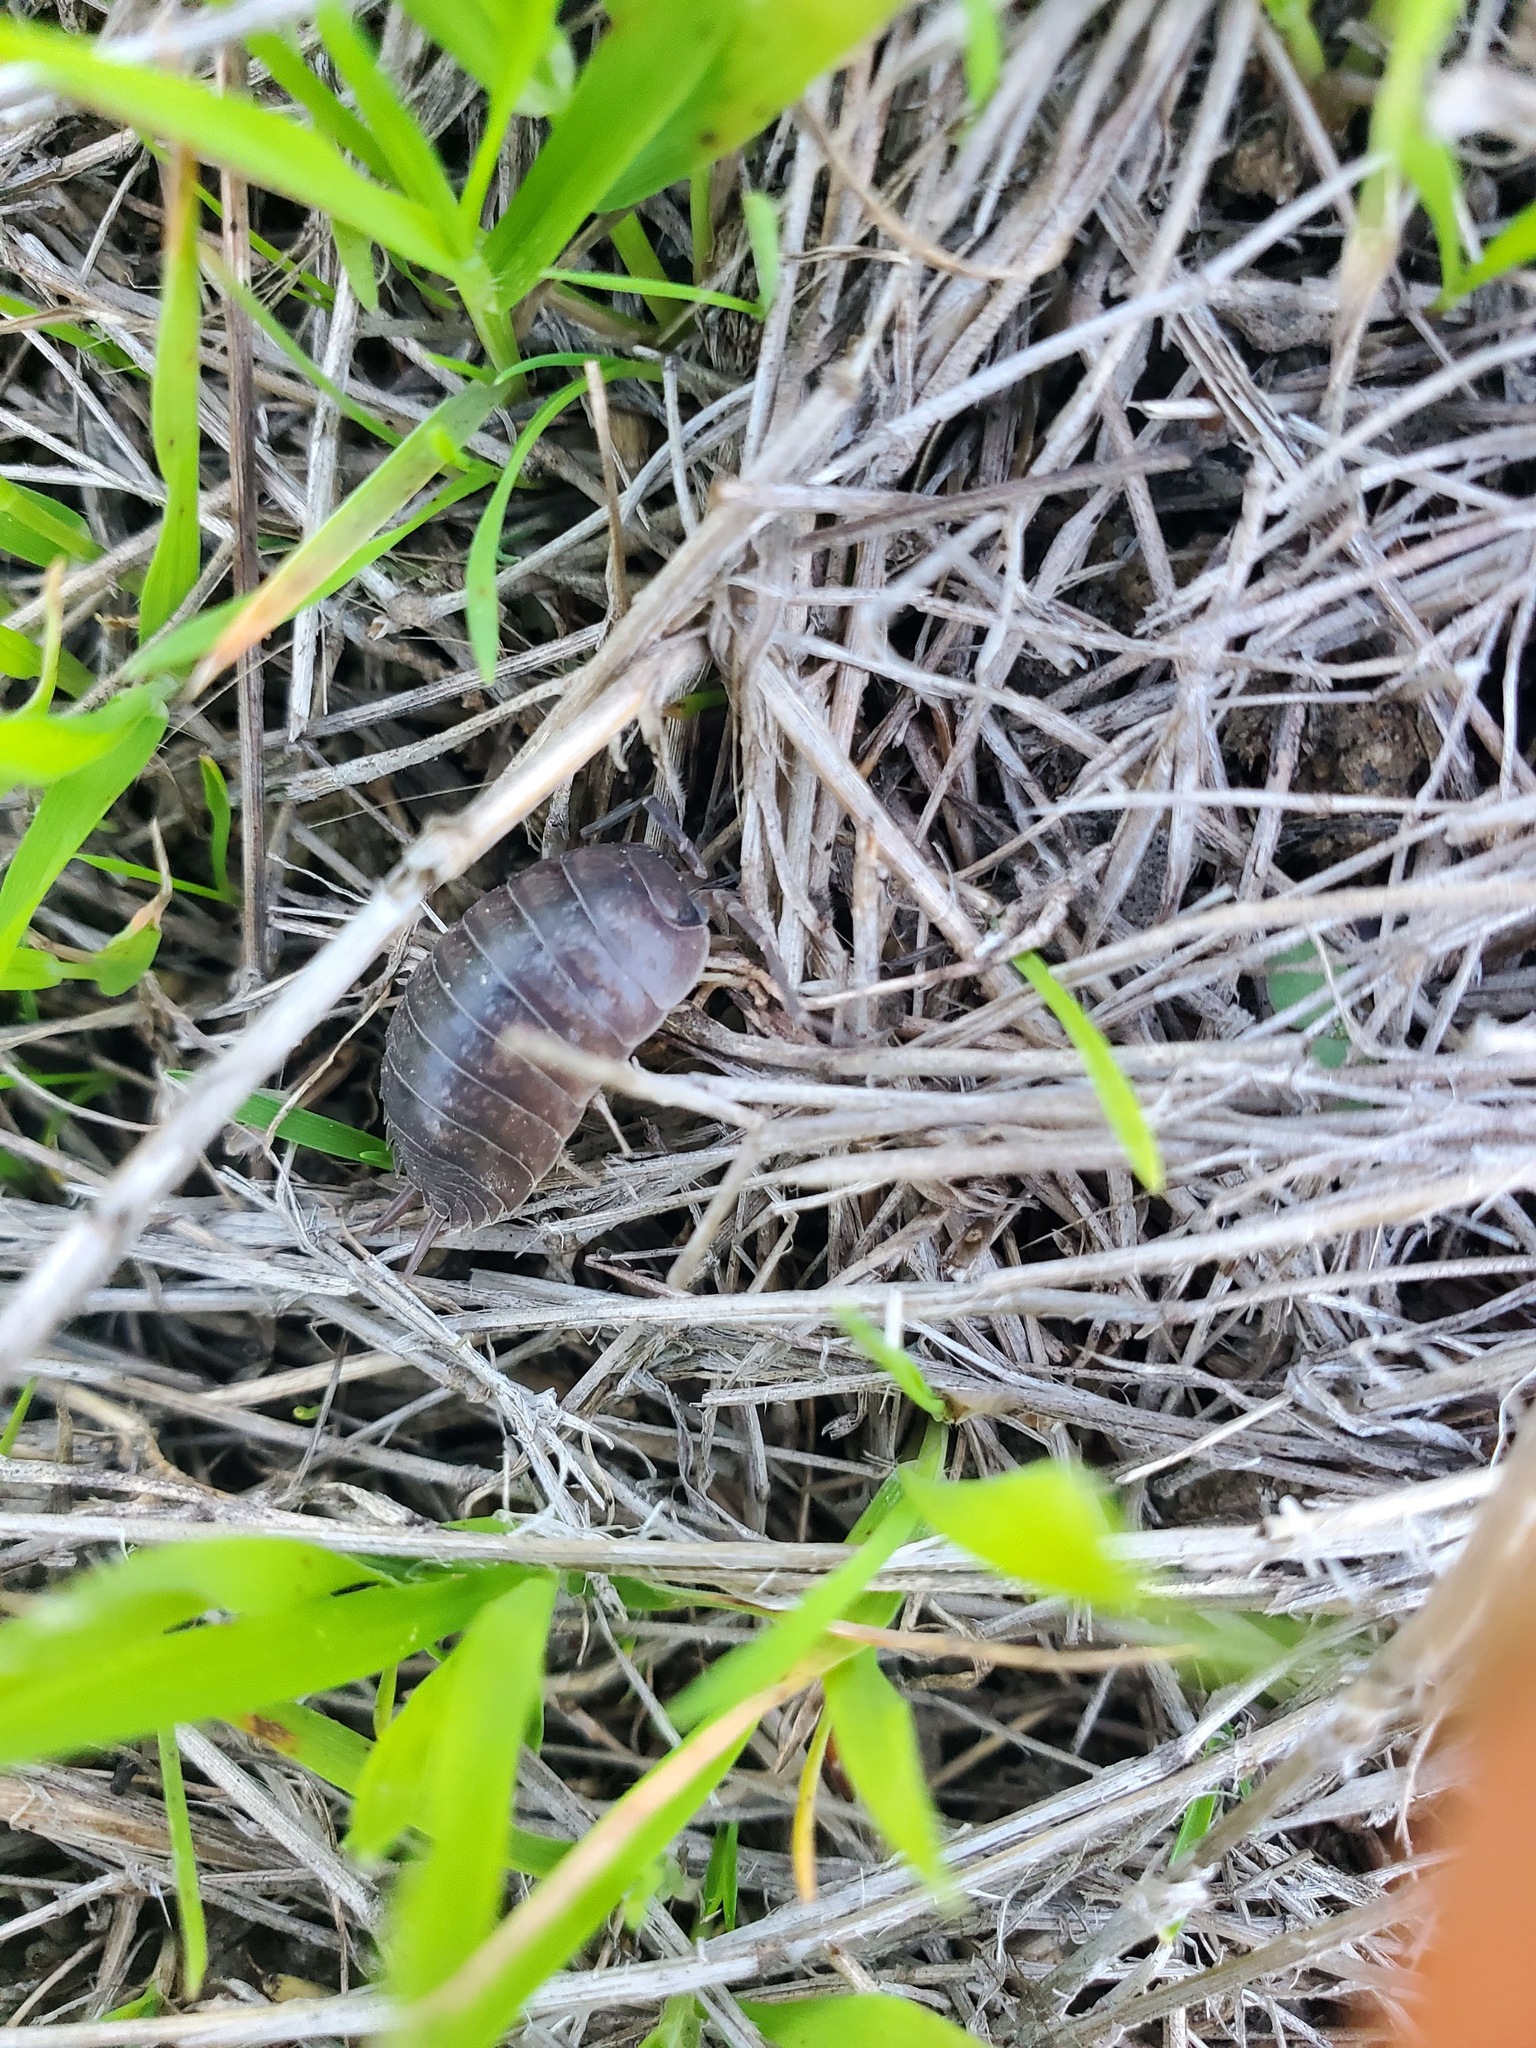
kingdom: Animalia
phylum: Arthropoda
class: Malacostraca
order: Isopoda
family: Porcellionidae
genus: Porcellio
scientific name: Porcellio laevis
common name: Swift woodlouse
